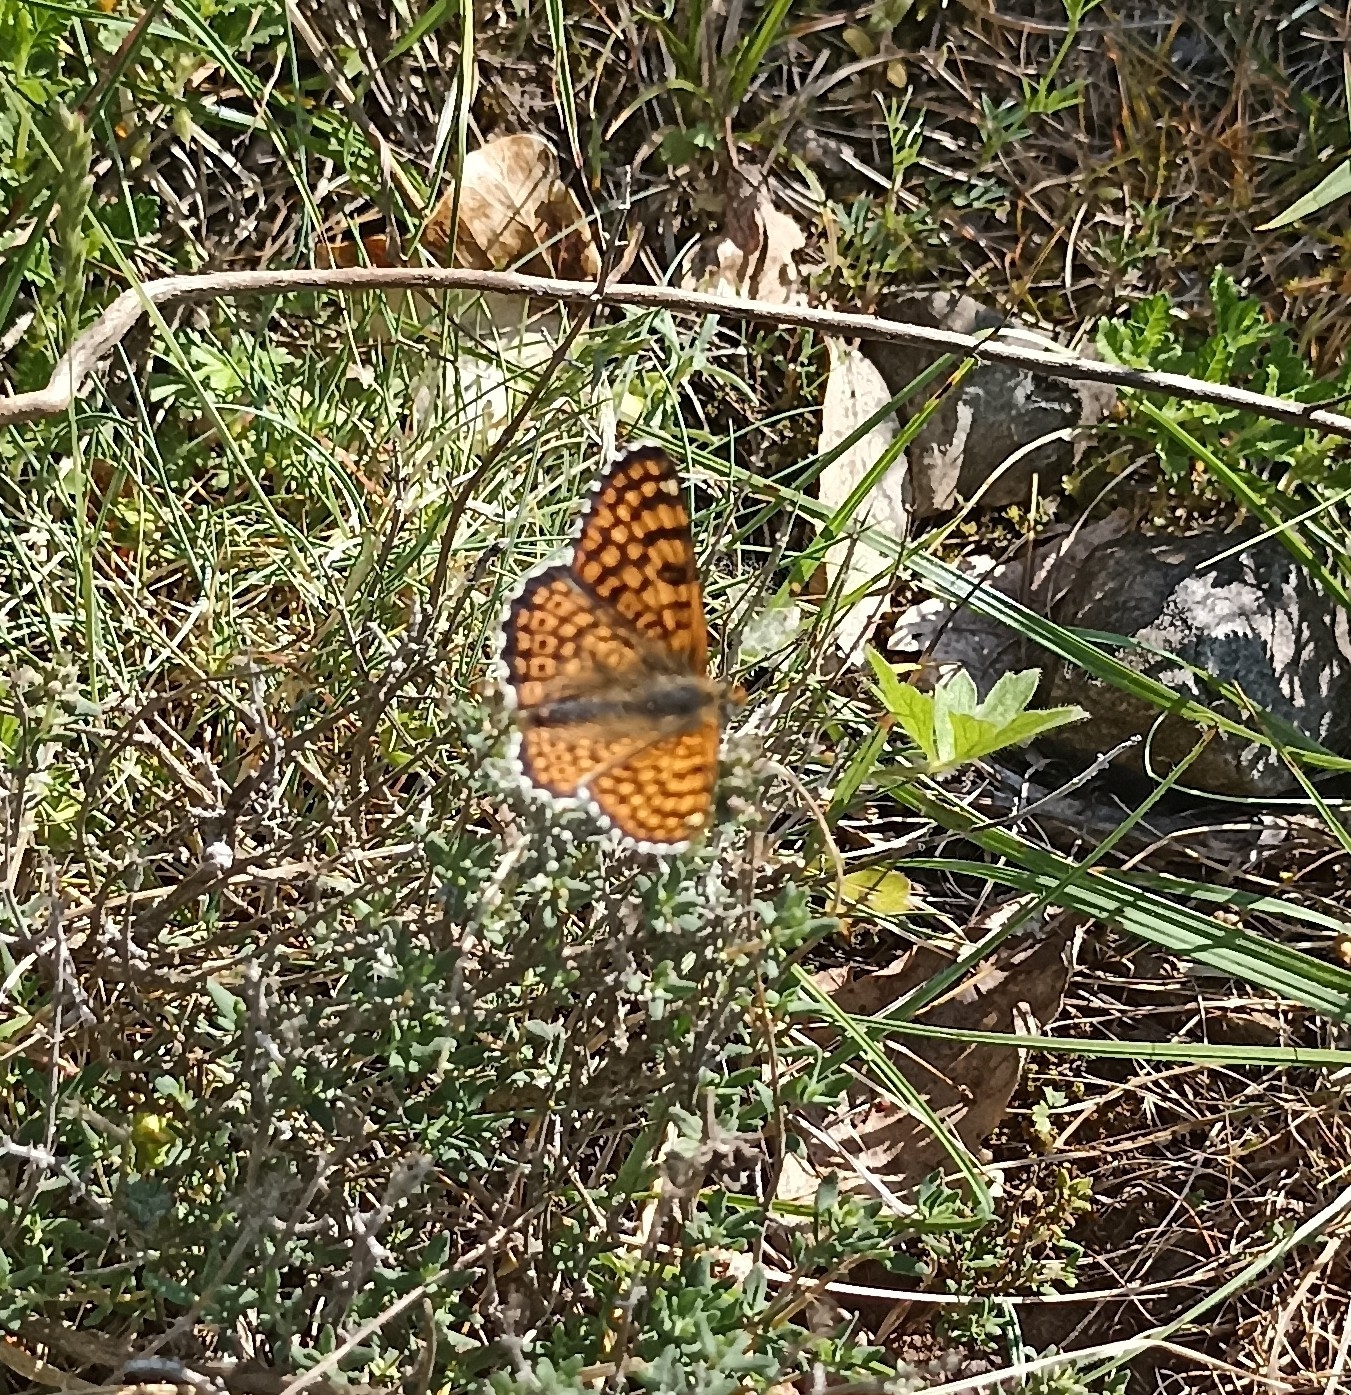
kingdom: Animalia
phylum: Arthropoda
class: Insecta
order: Lepidoptera
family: Nymphalidae
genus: Melitaea
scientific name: Melitaea cinxia
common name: Glanville fritillary
